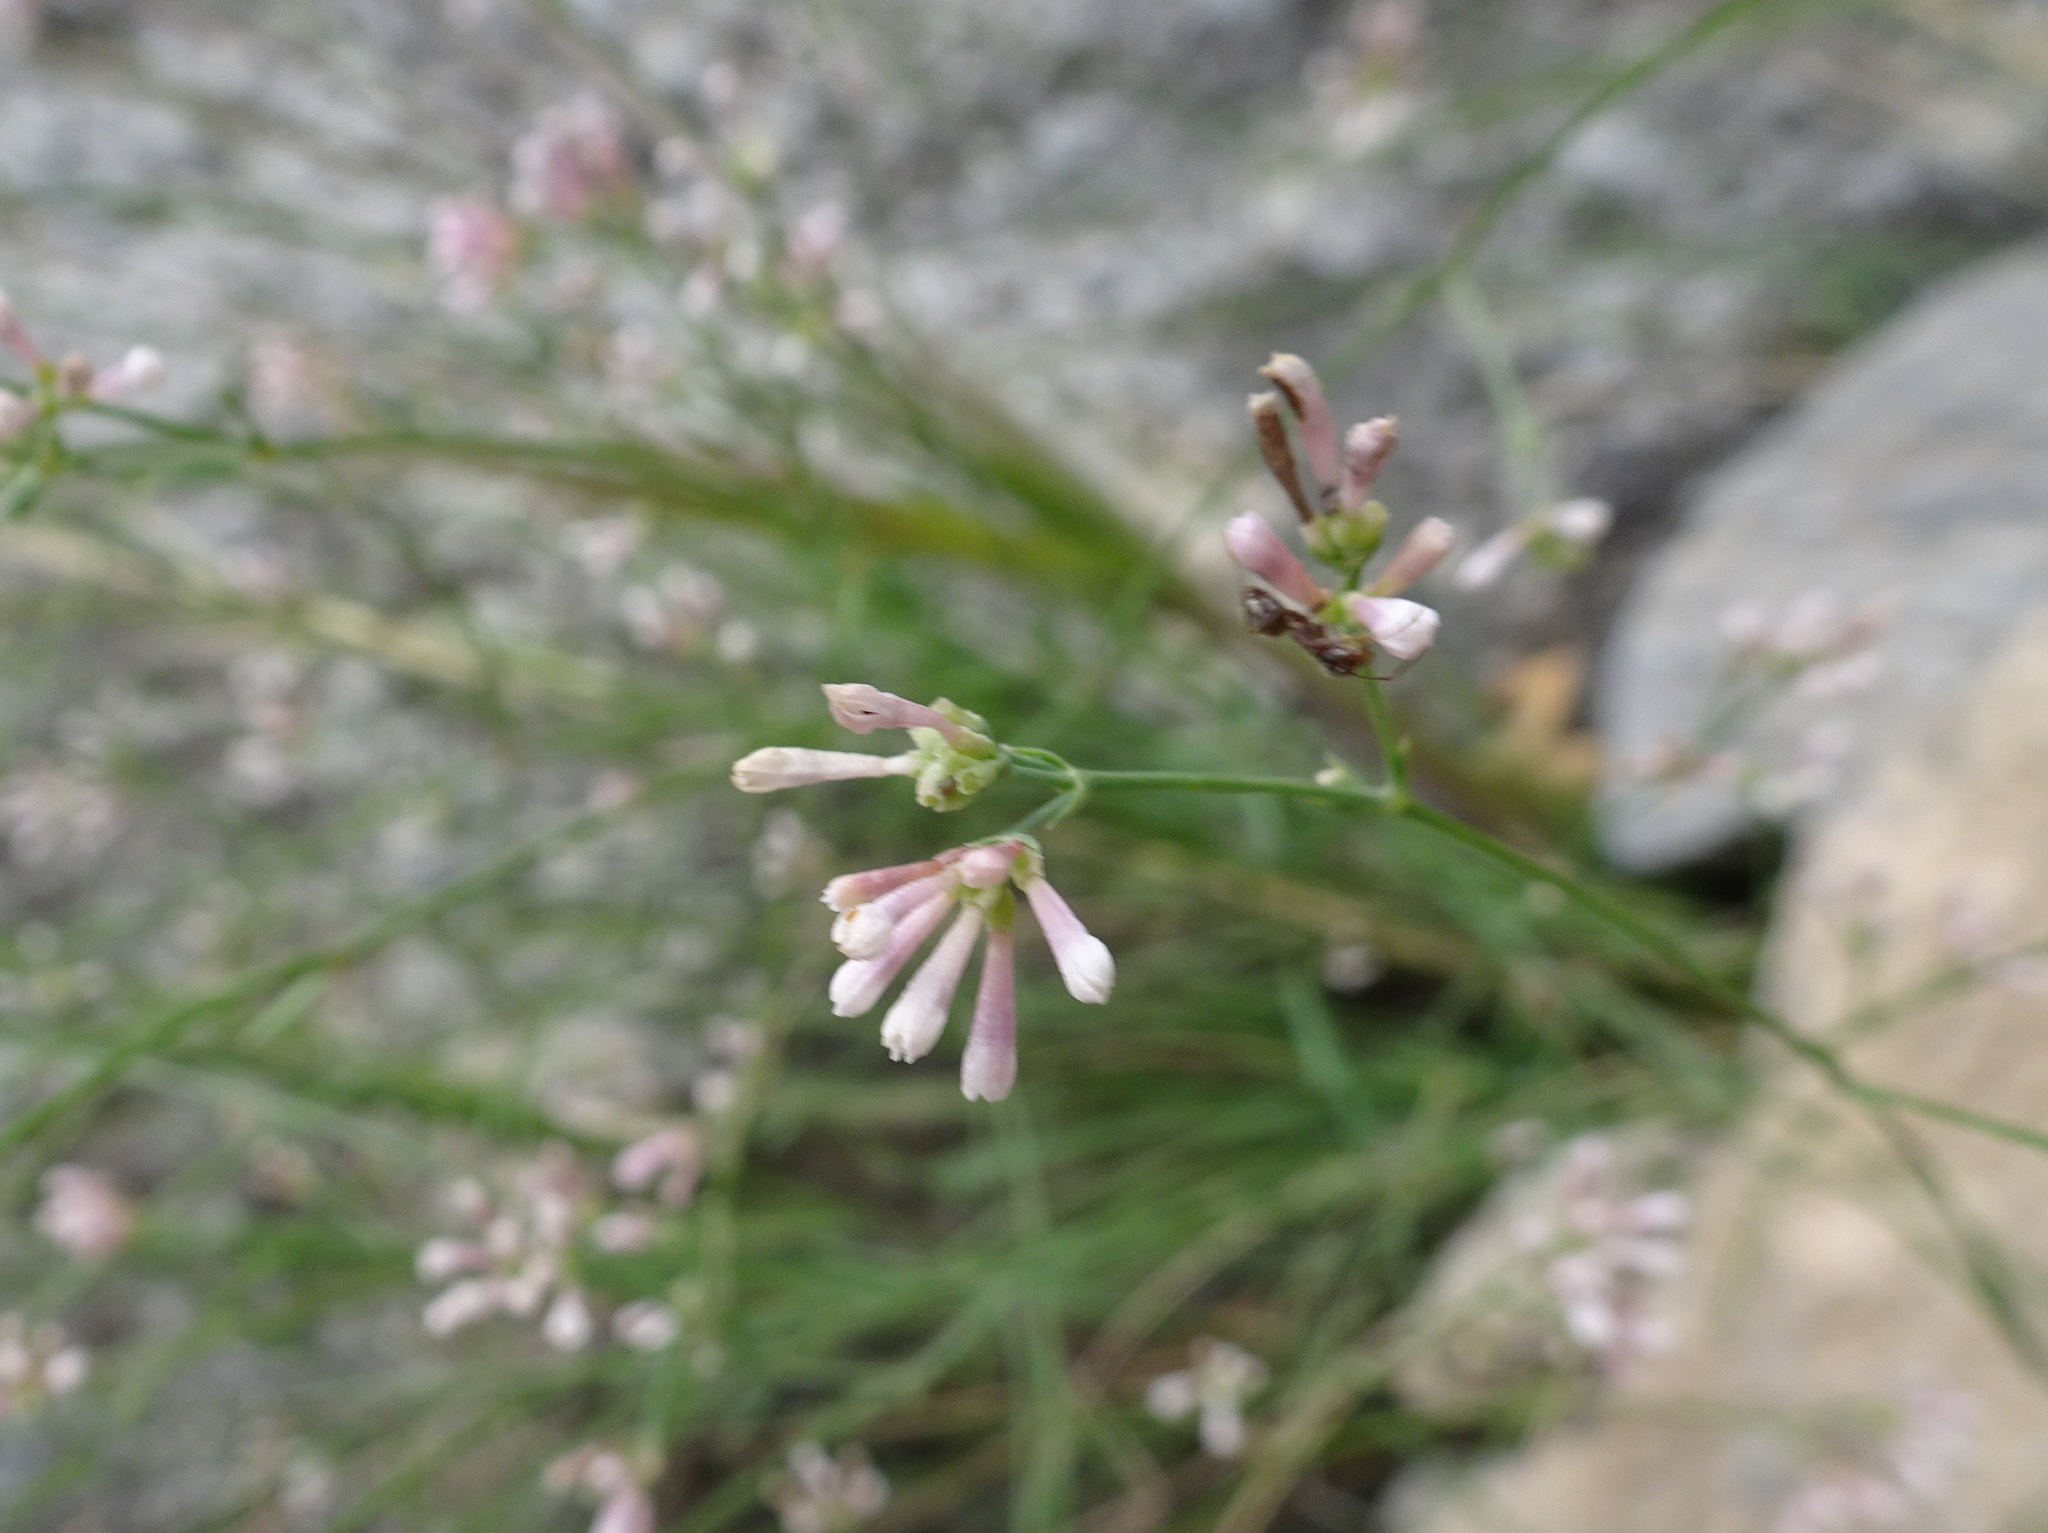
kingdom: Plantae
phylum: Tracheophyta
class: Magnoliopsida
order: Gentianales
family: Rubiaceae
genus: Cynanchica
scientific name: Cynanchica pyrenaica
